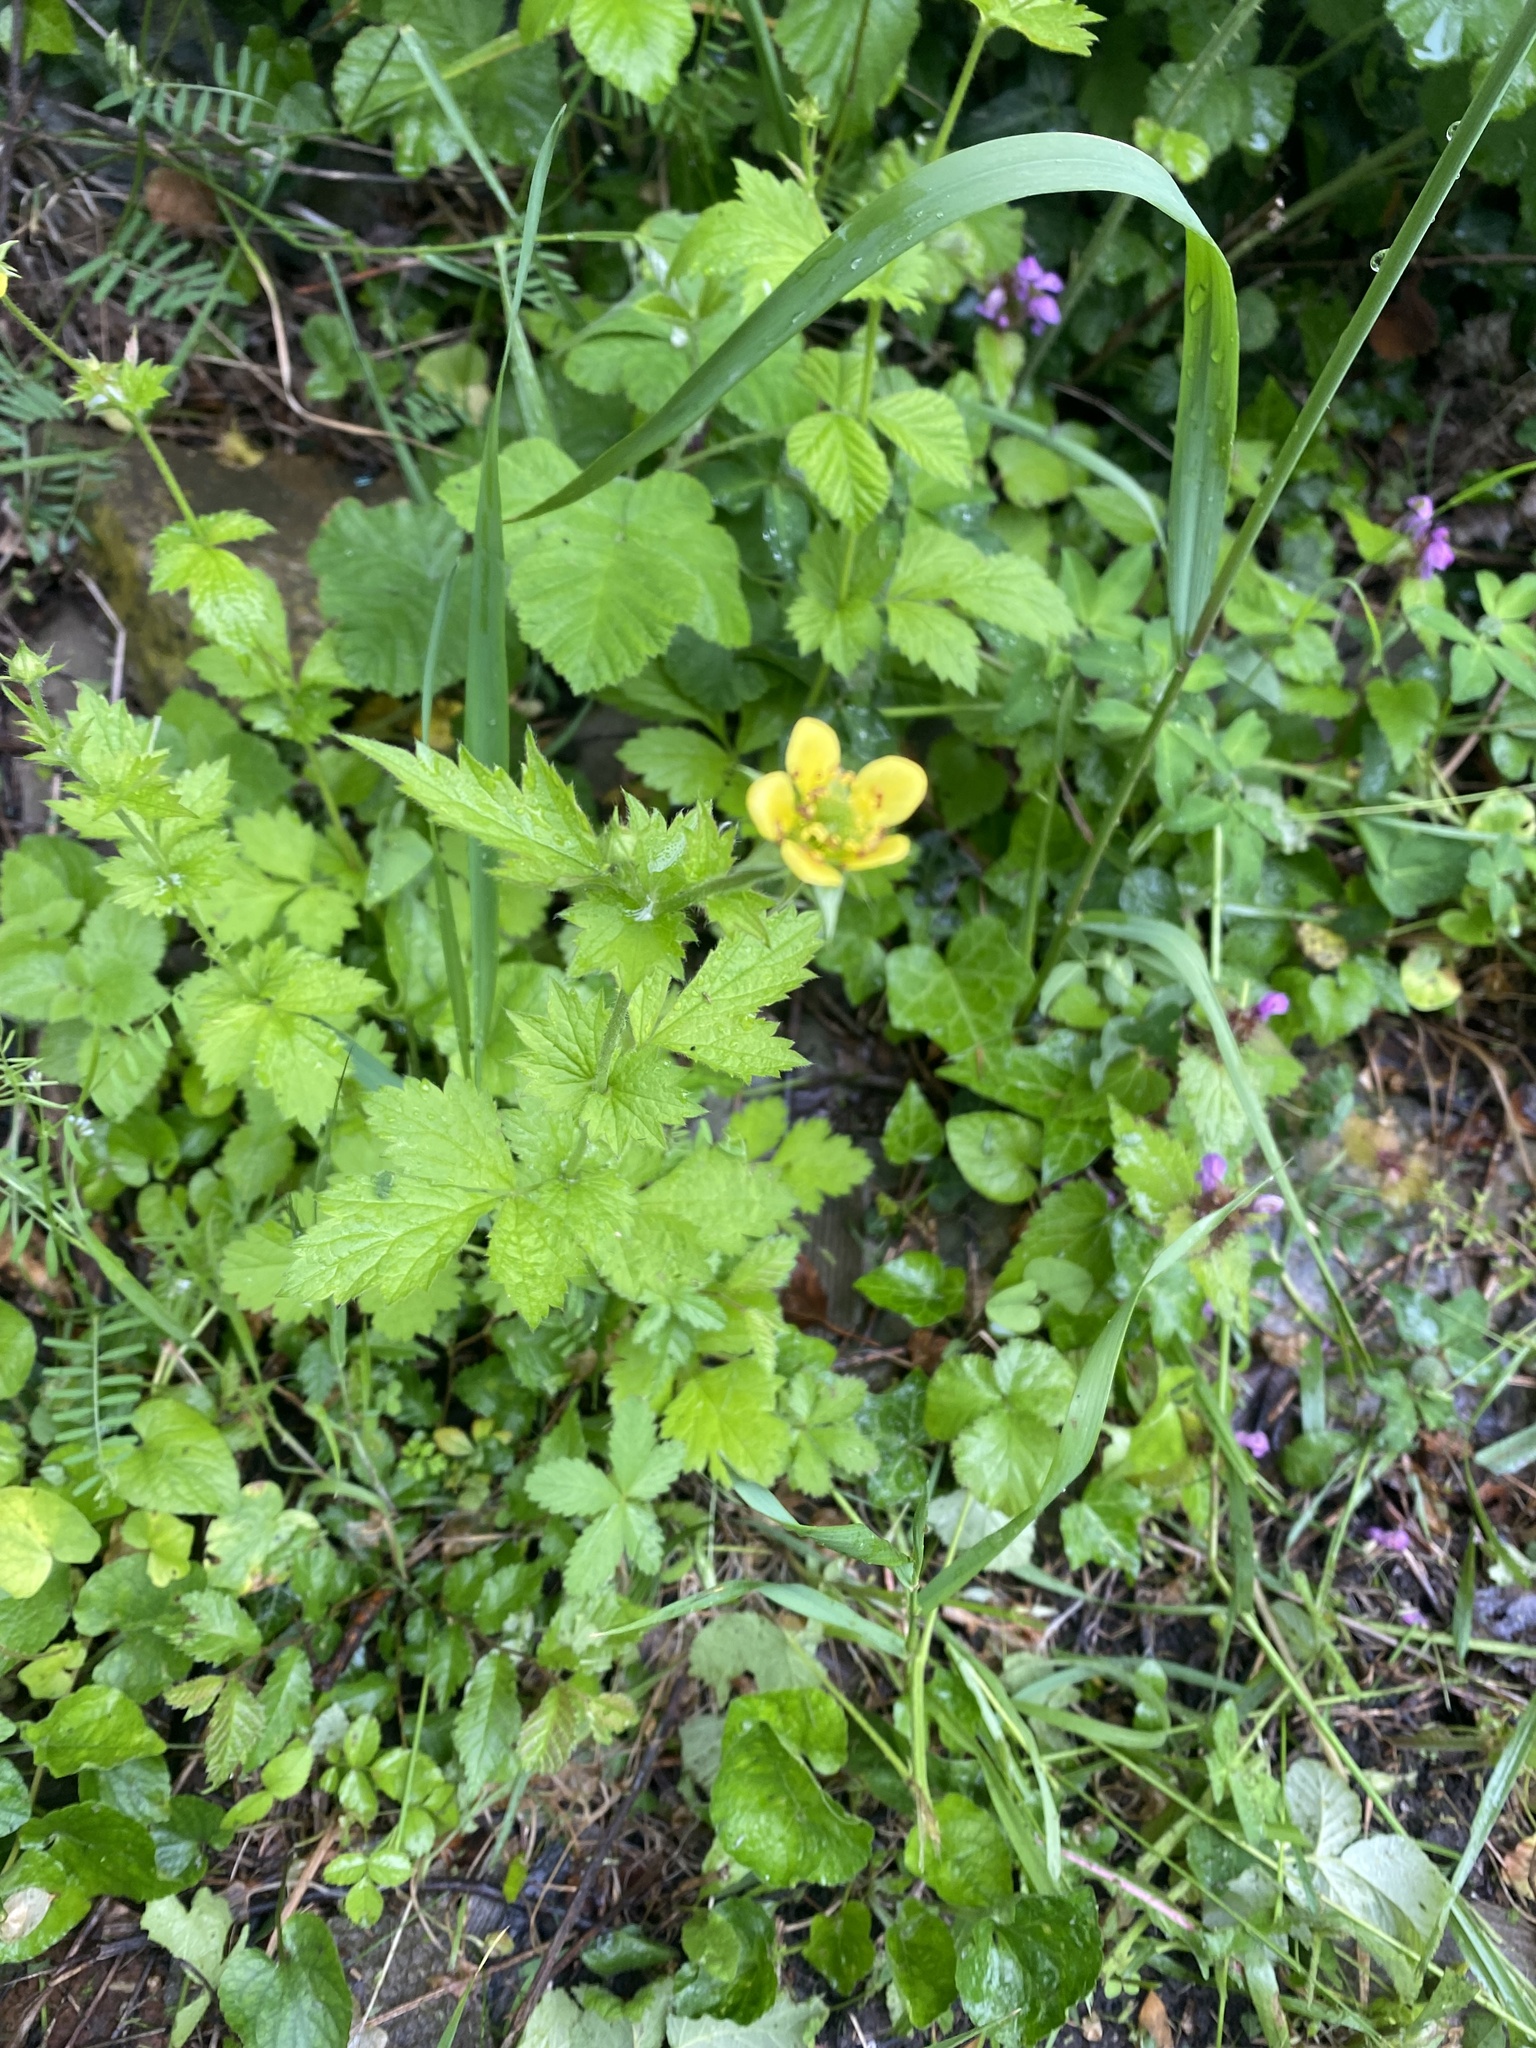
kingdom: Plantae
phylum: Tracheophyta
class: Magnoliopsida
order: Rosales
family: Rosaceae
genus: Geum
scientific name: Geum urbanum
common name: Wood avens
